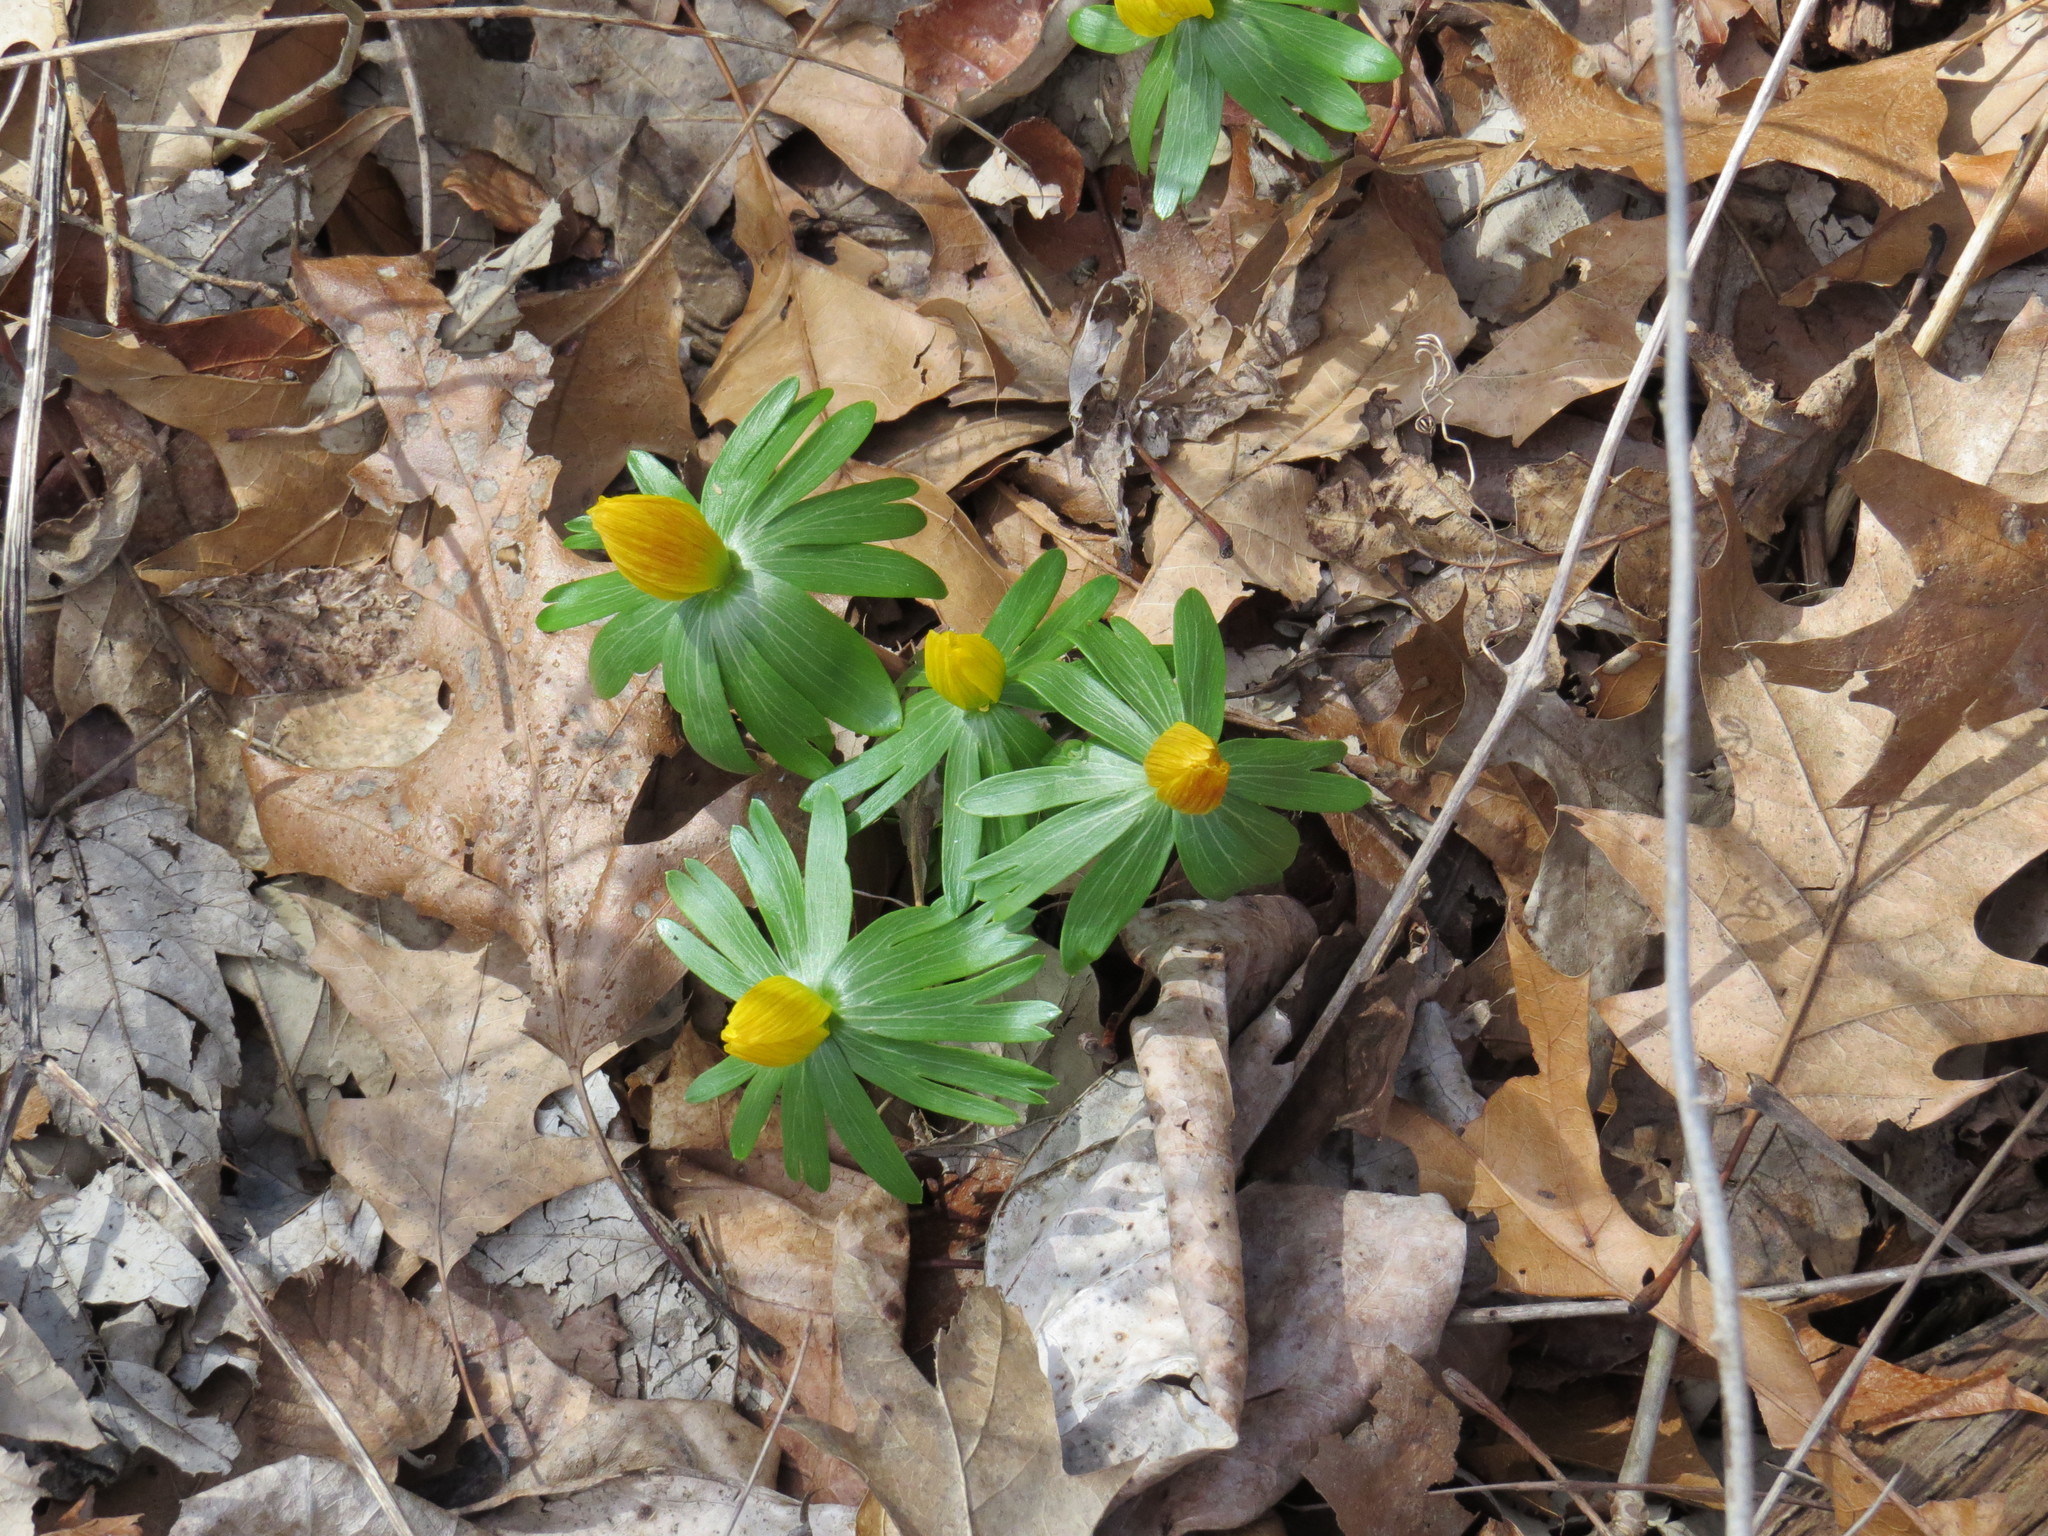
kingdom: Plantae
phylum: Tracheophyta
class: Magnoliopsida
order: Ranunculales
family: Ranunculaceae
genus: Eranthis
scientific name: Eranthis hyemalis
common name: Winter aconite
